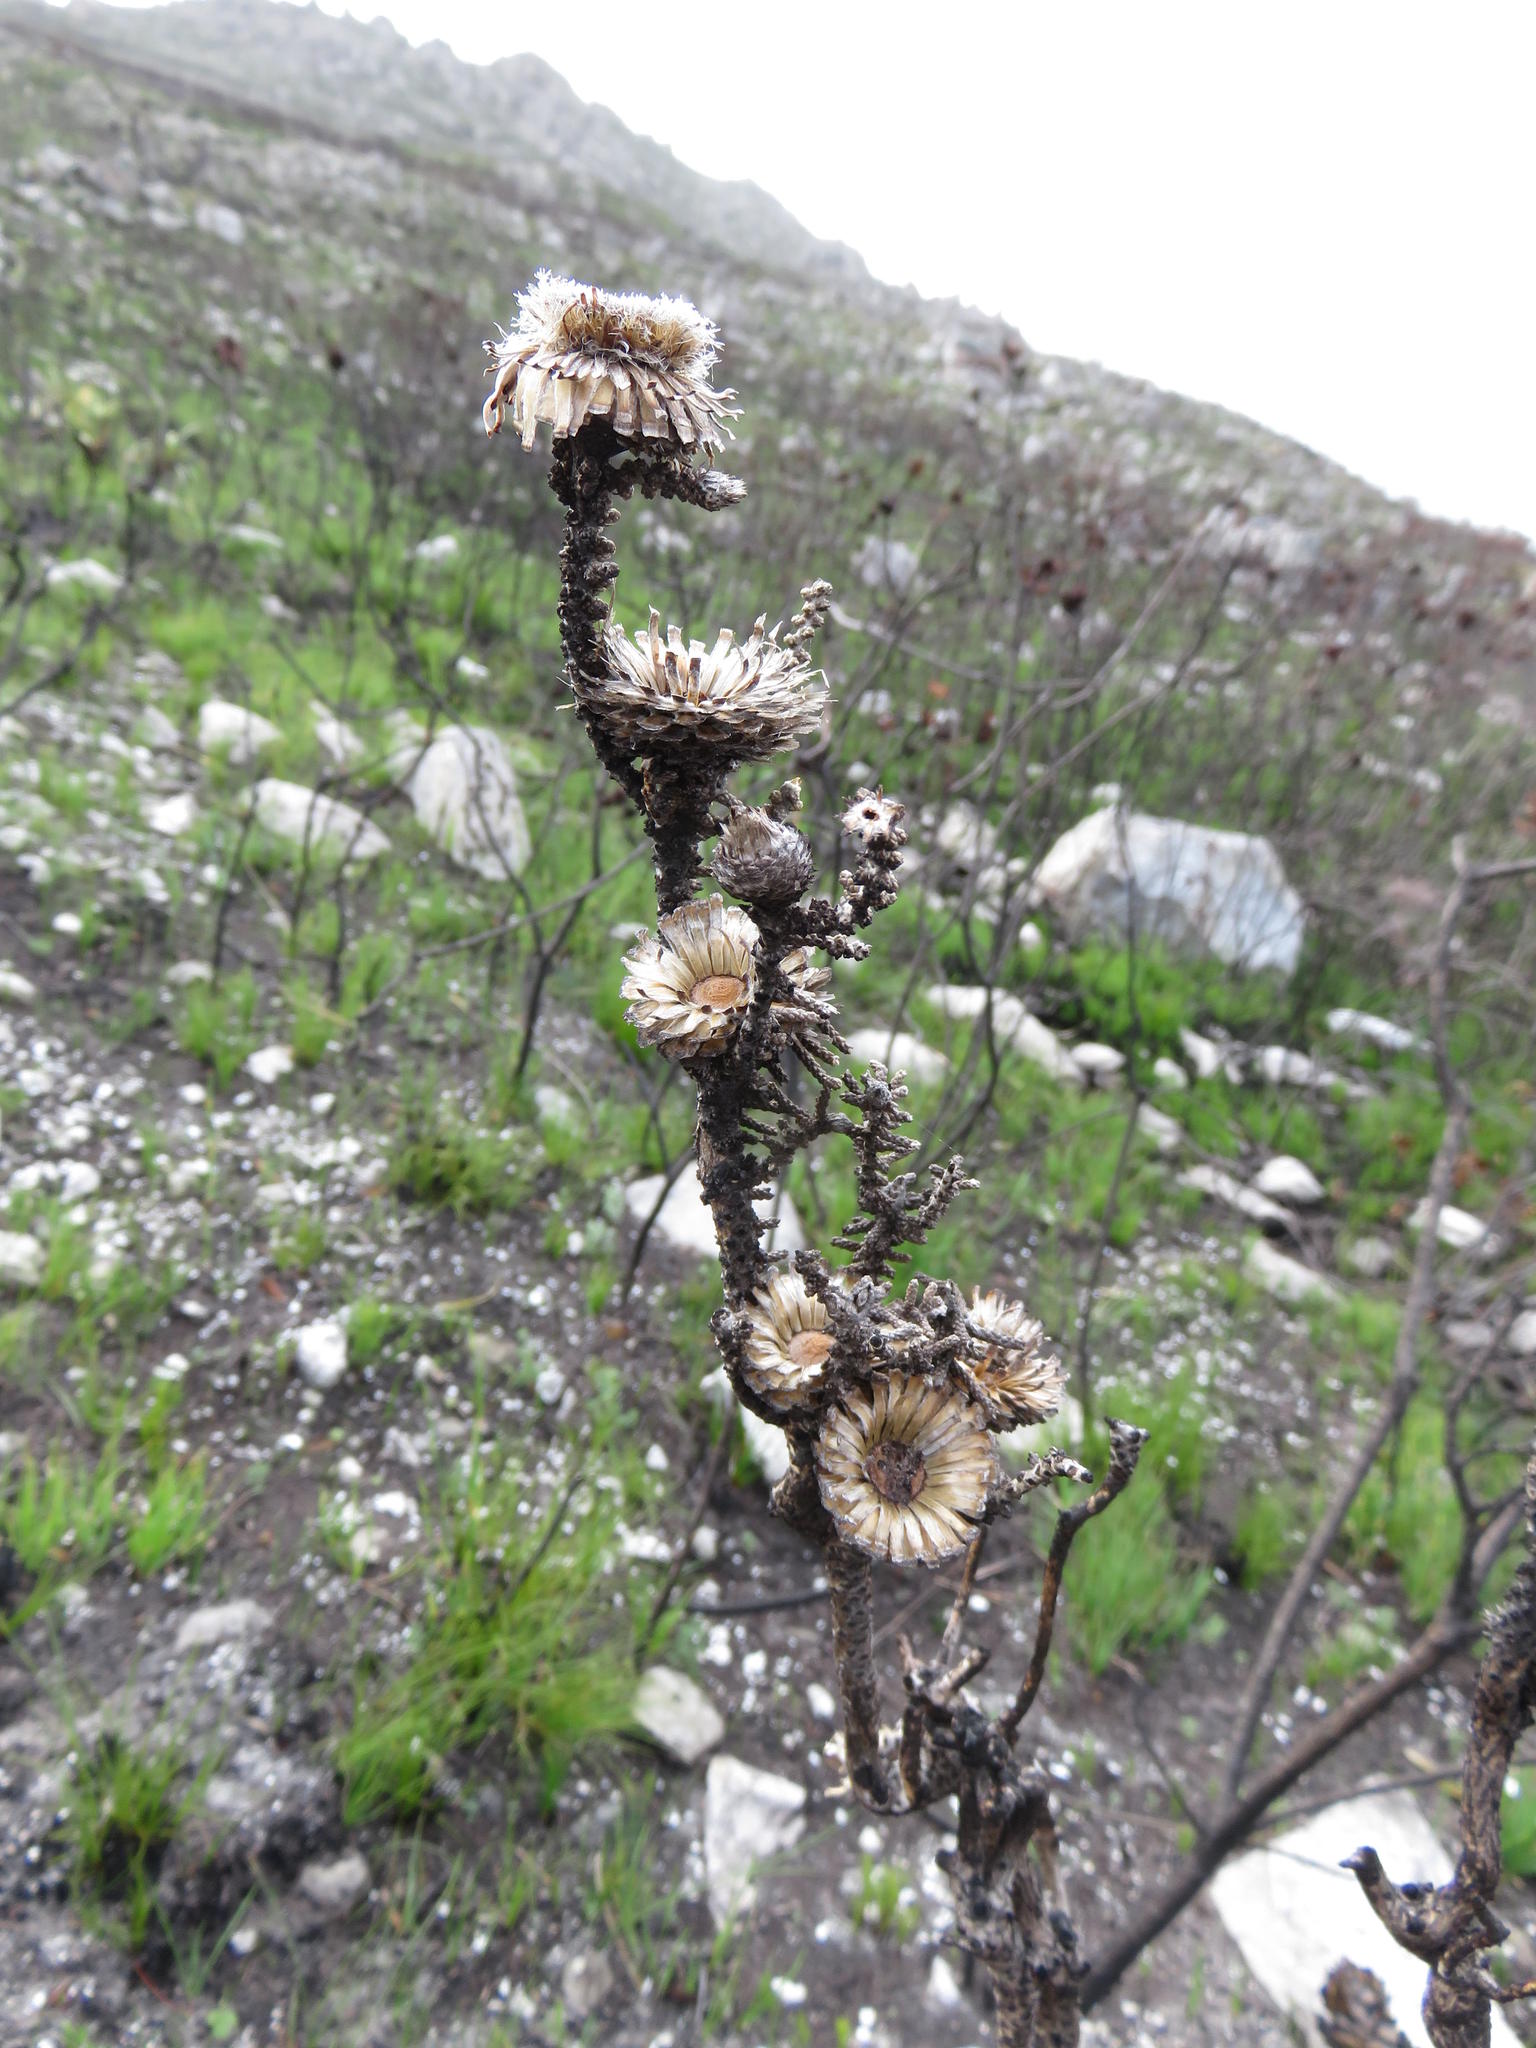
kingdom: Plantae
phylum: Tracheophyta
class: Magnoliopsida
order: Asterales
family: Asteraceae
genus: Phaenocoma
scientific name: Phaenocoma prolifera
